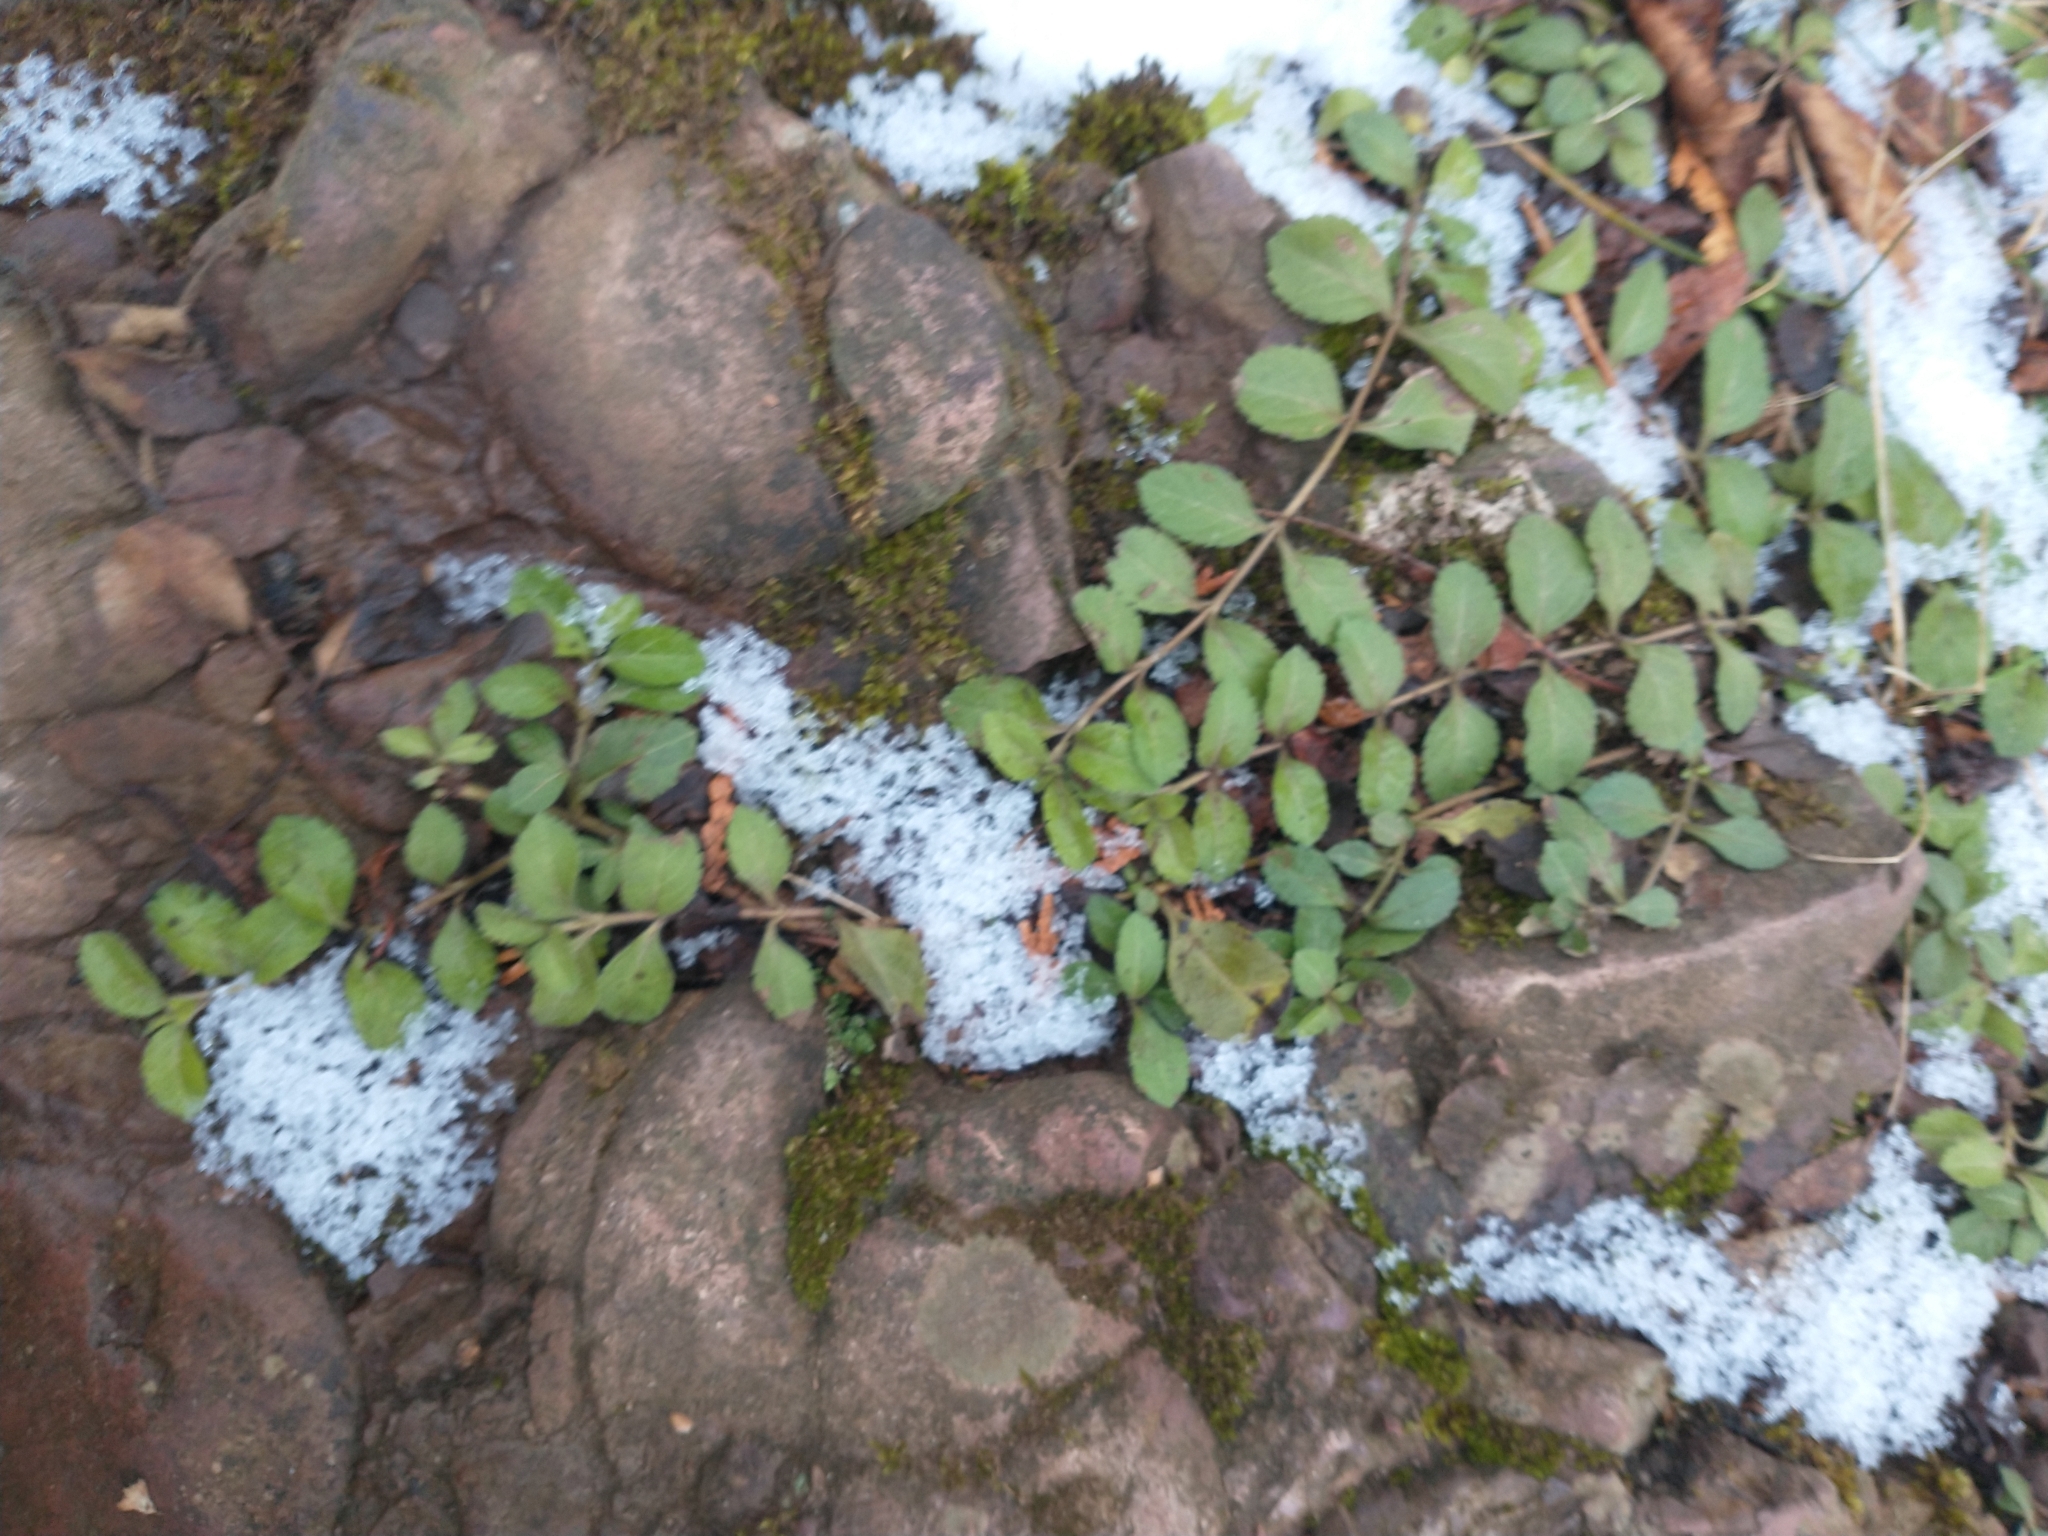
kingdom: Plantae
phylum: Tracheophyta
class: Magnoliopsida
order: Lamiales
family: Plantaginaceae
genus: Veronica
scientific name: Veronica officinalis
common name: Common speedwell
